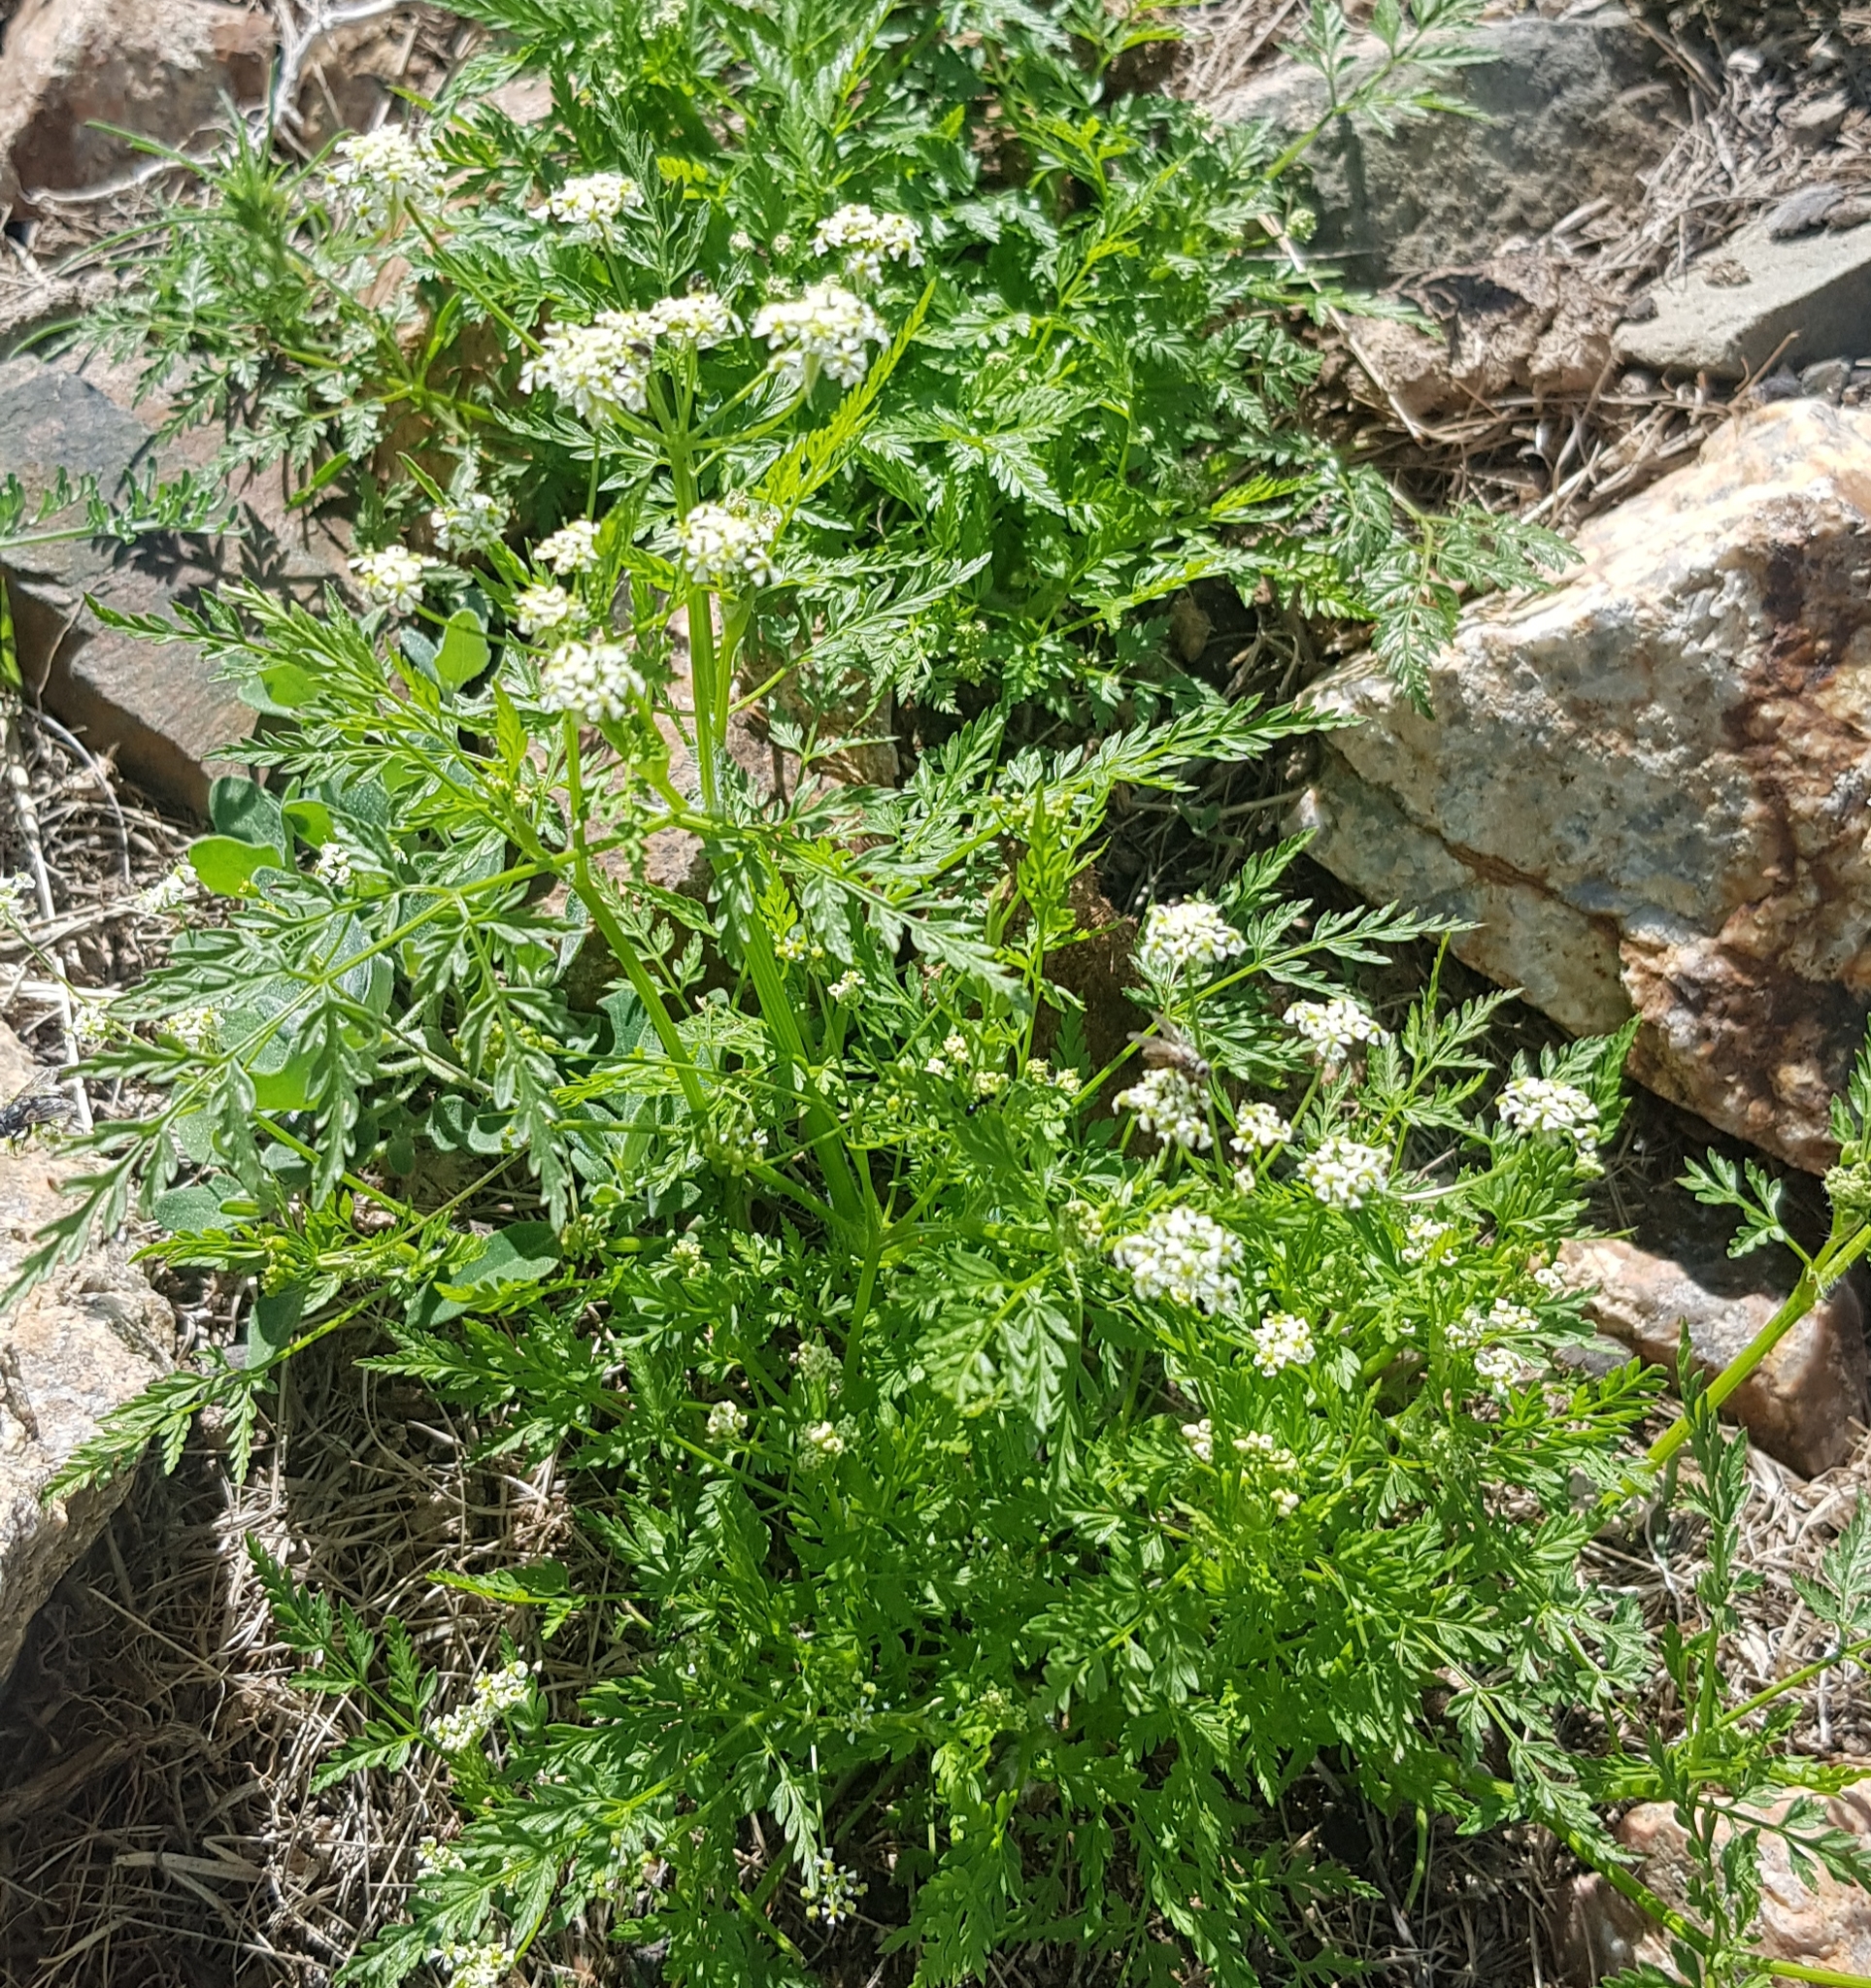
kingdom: Plantae
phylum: Tracheophyta
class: Magnoliopsida
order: Apiales
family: Apiaceae
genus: Sphallerocarpus
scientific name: Sphallerocarpus gracilis
